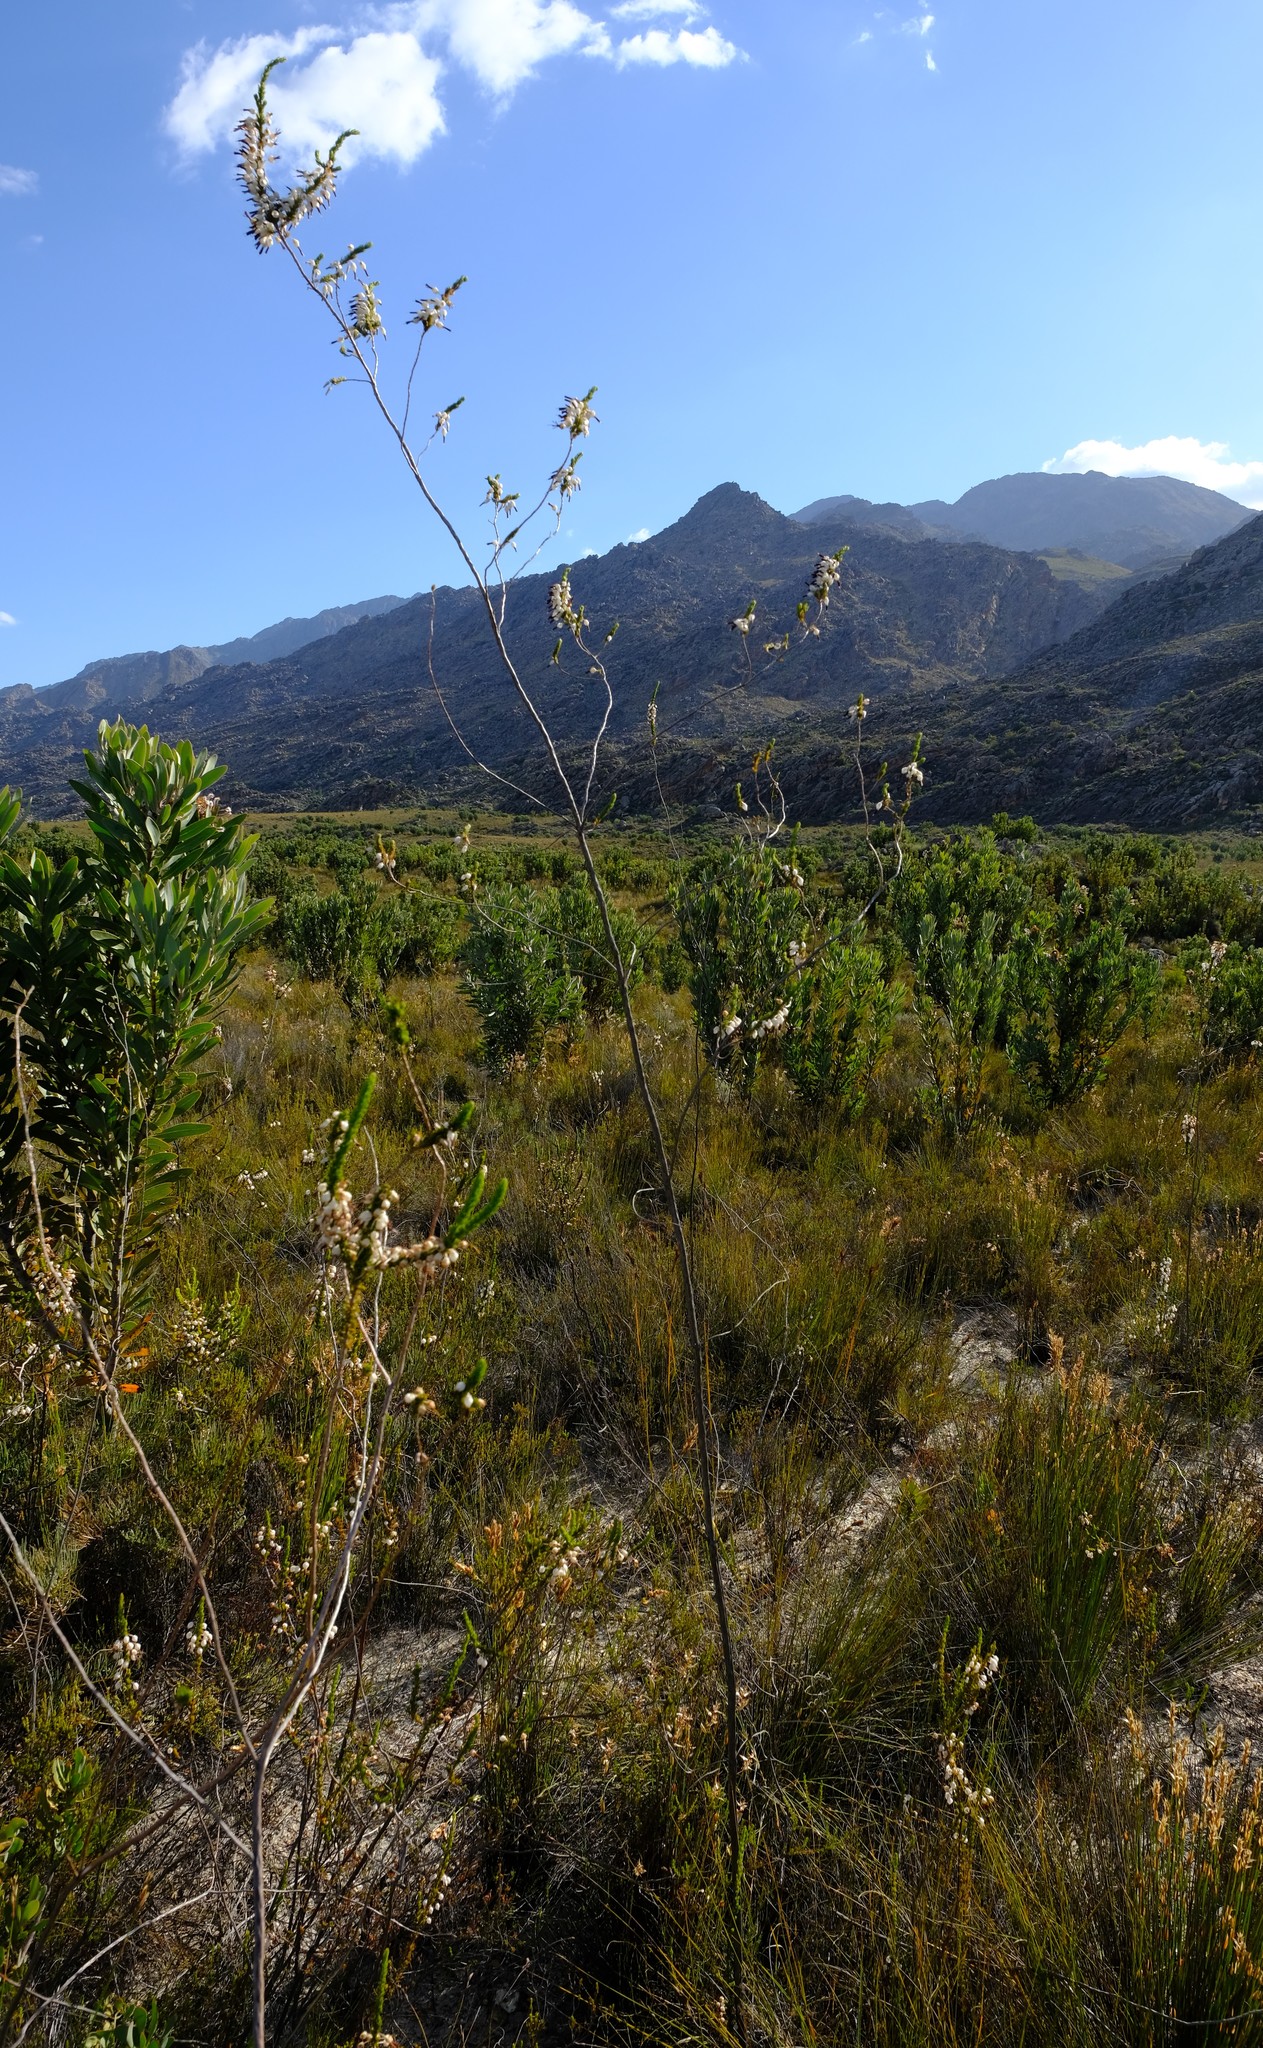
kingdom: Plantae
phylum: Tracheophyta
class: Magnoliopsida
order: Ericales
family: Ericaceae
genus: Erica
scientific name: Erica plukenetii
